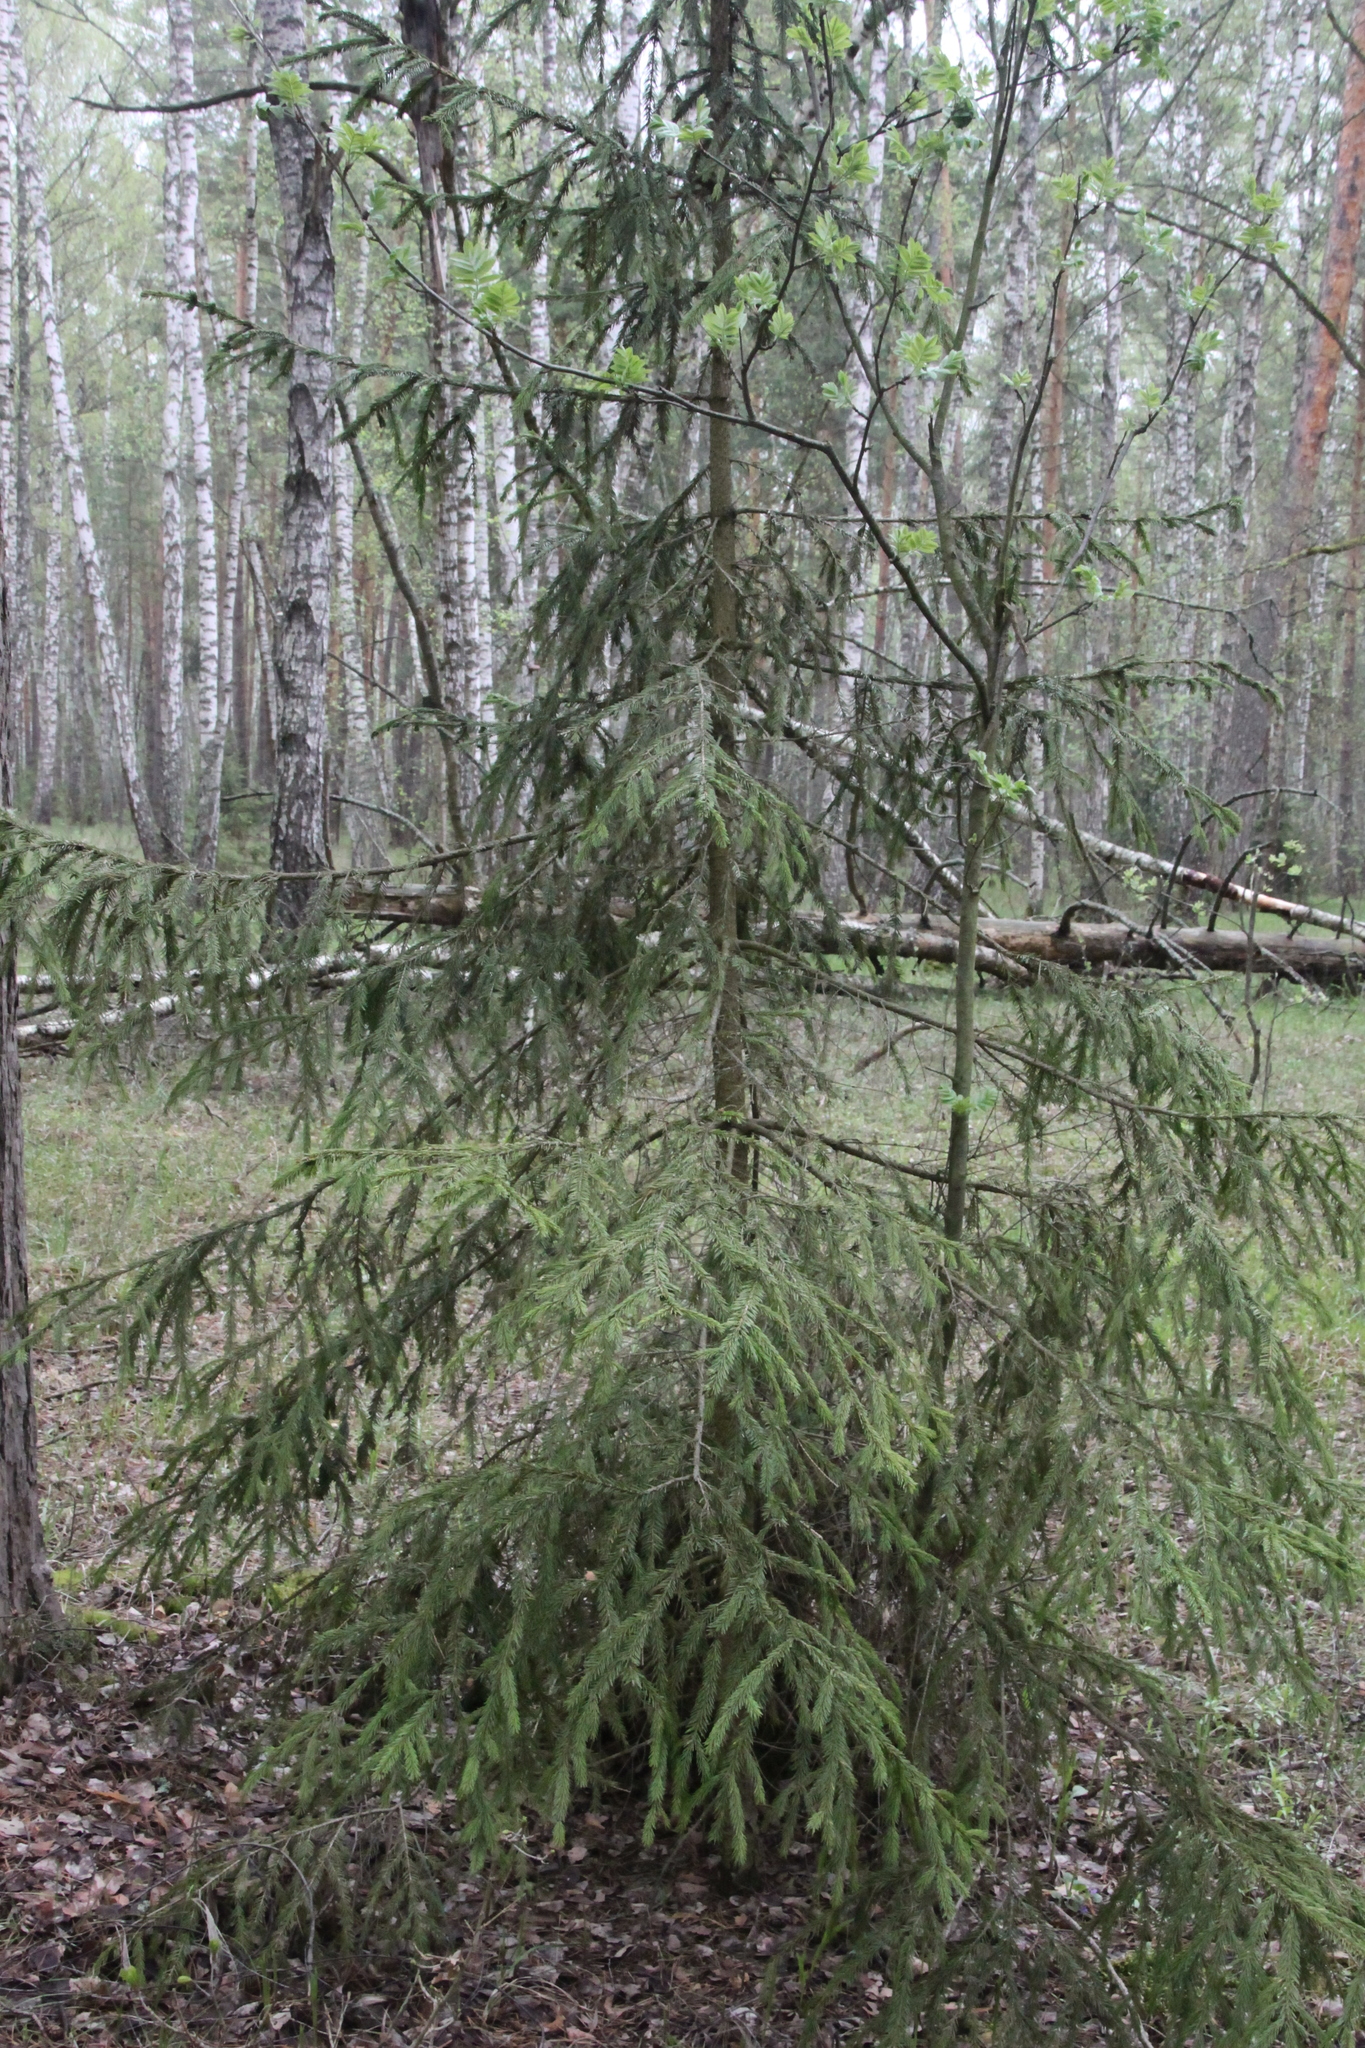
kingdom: Plantae
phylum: Tracheophyta
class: Pinopsida
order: Pinales
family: Pinaceae
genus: Picea
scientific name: Picea abies
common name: Norway spruce
